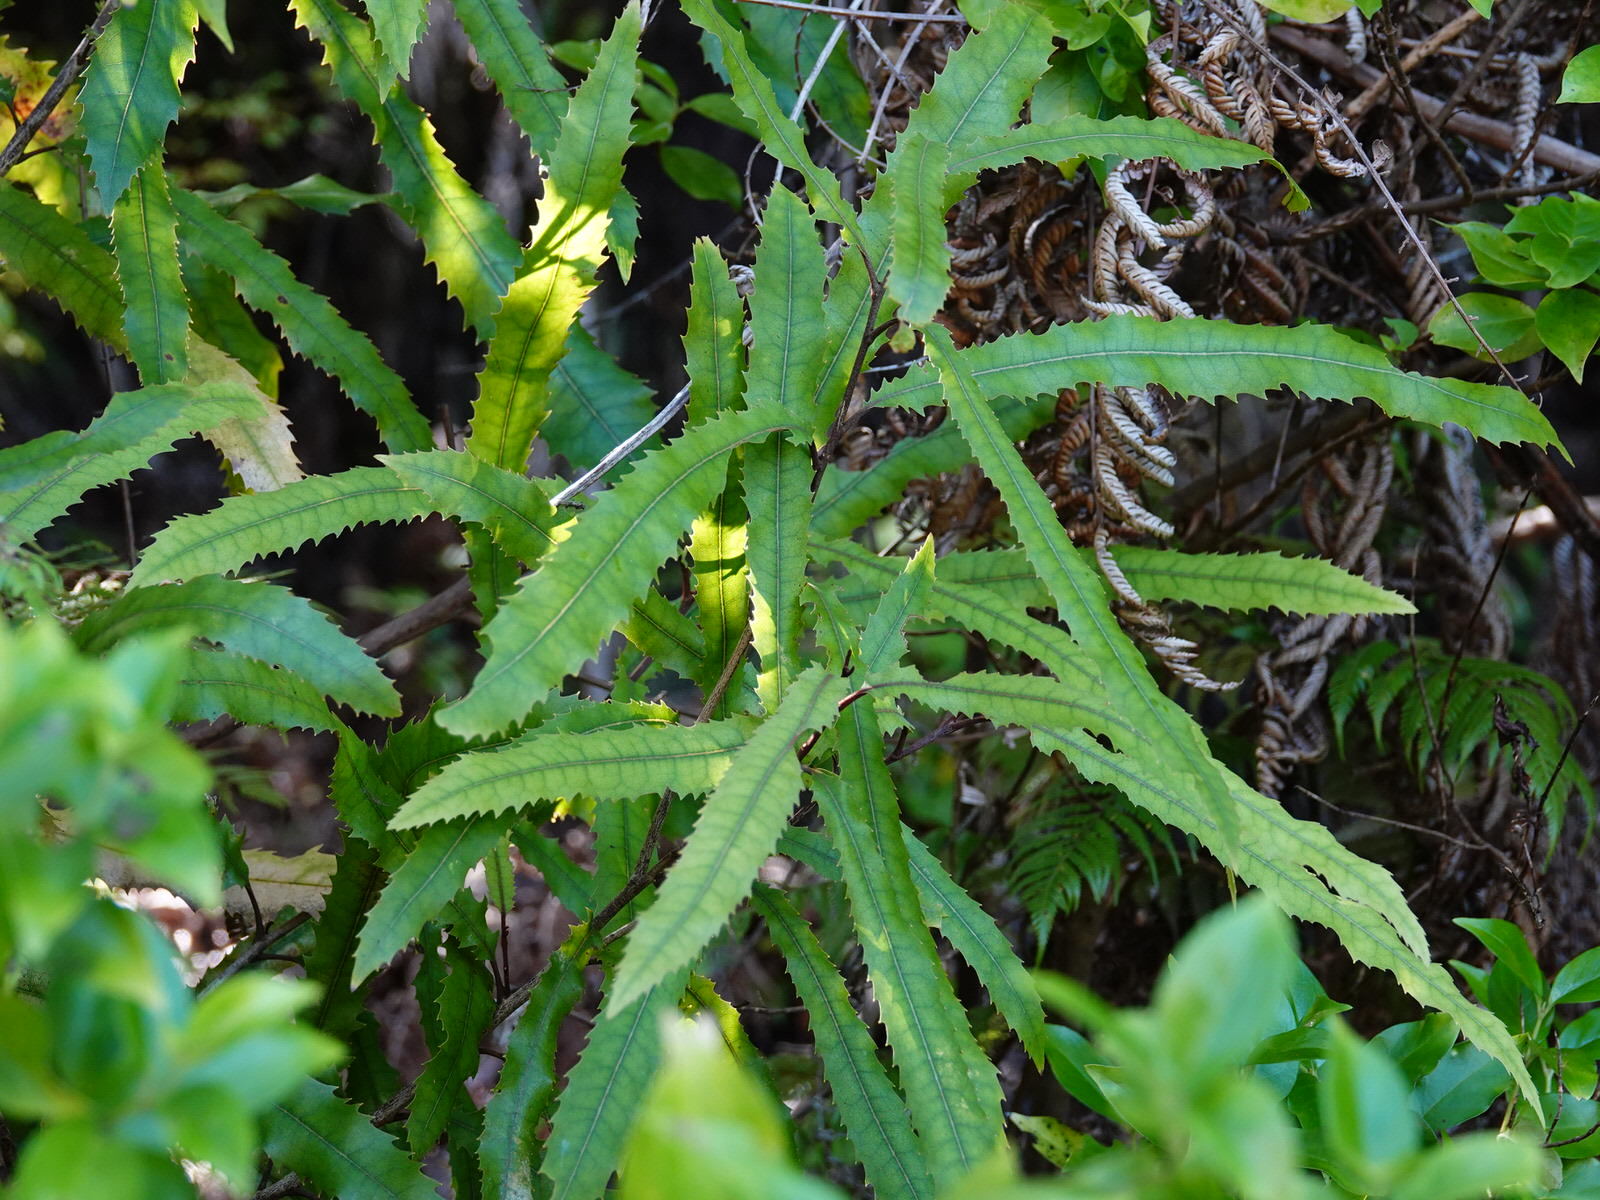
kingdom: Plantae
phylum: Tracheophyta
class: Magnoliopsida
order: Proteales
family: Proteaceae
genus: Knightia
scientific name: Knightia excelsa
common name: New zealand-honeysuckle
